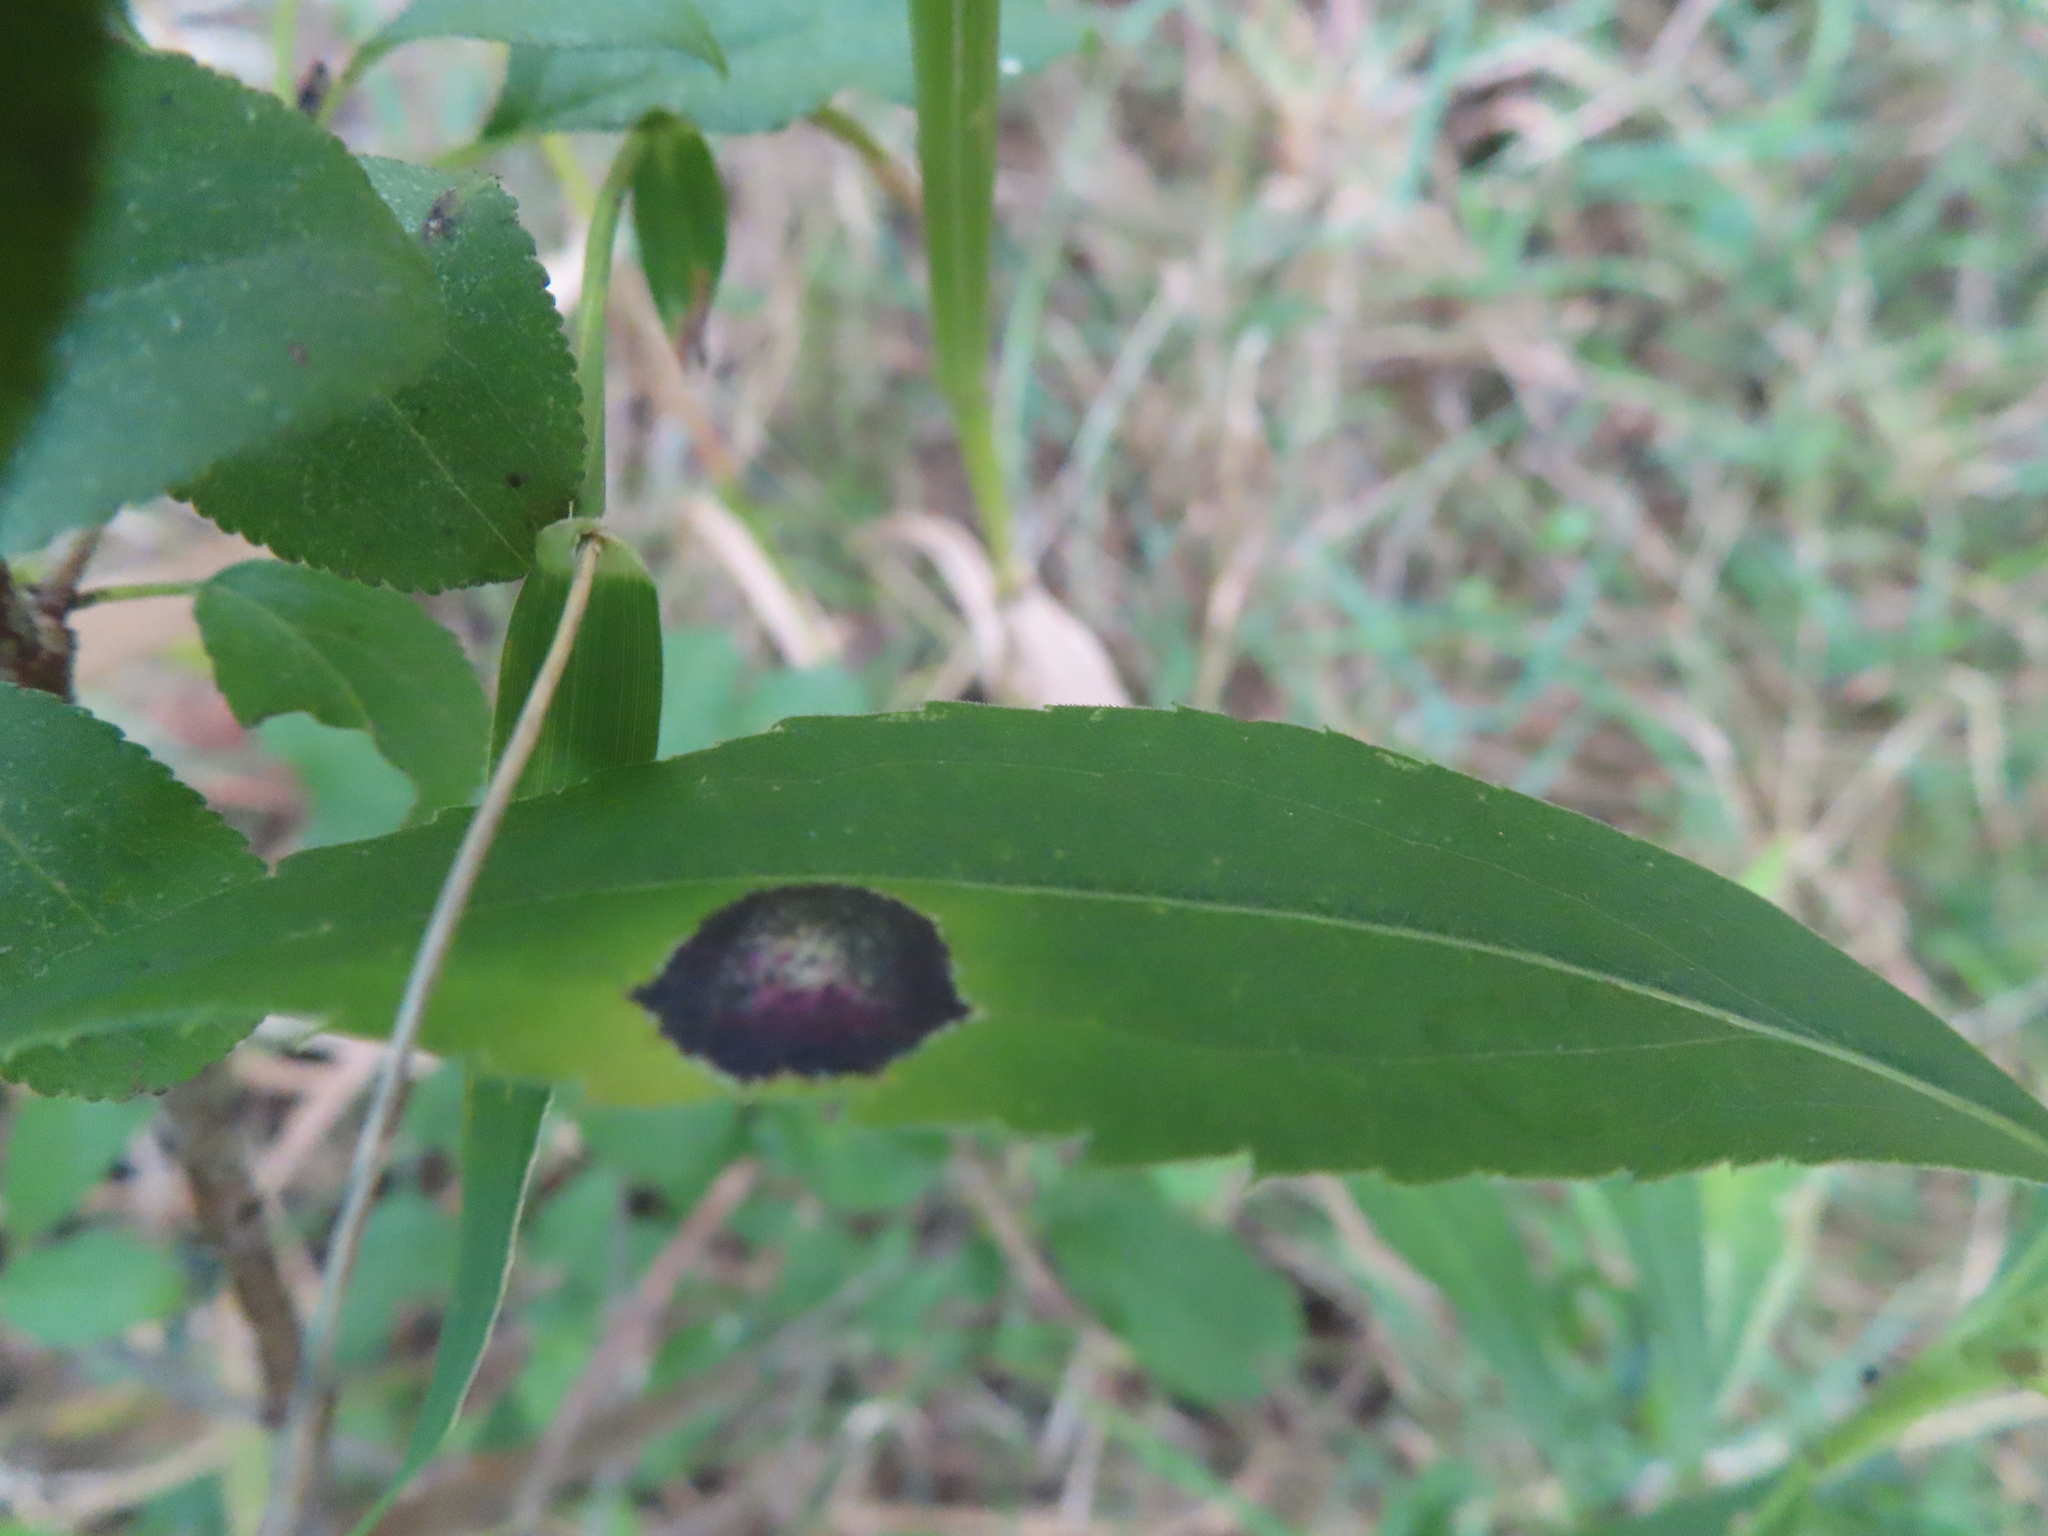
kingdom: Animalia
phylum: Arthropoda
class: Insecta
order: Diptera
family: Cecidomyiidae
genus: Asteromyia
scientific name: Asteromyia carbonifera
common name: Carbonifera goldenrod gall midge
